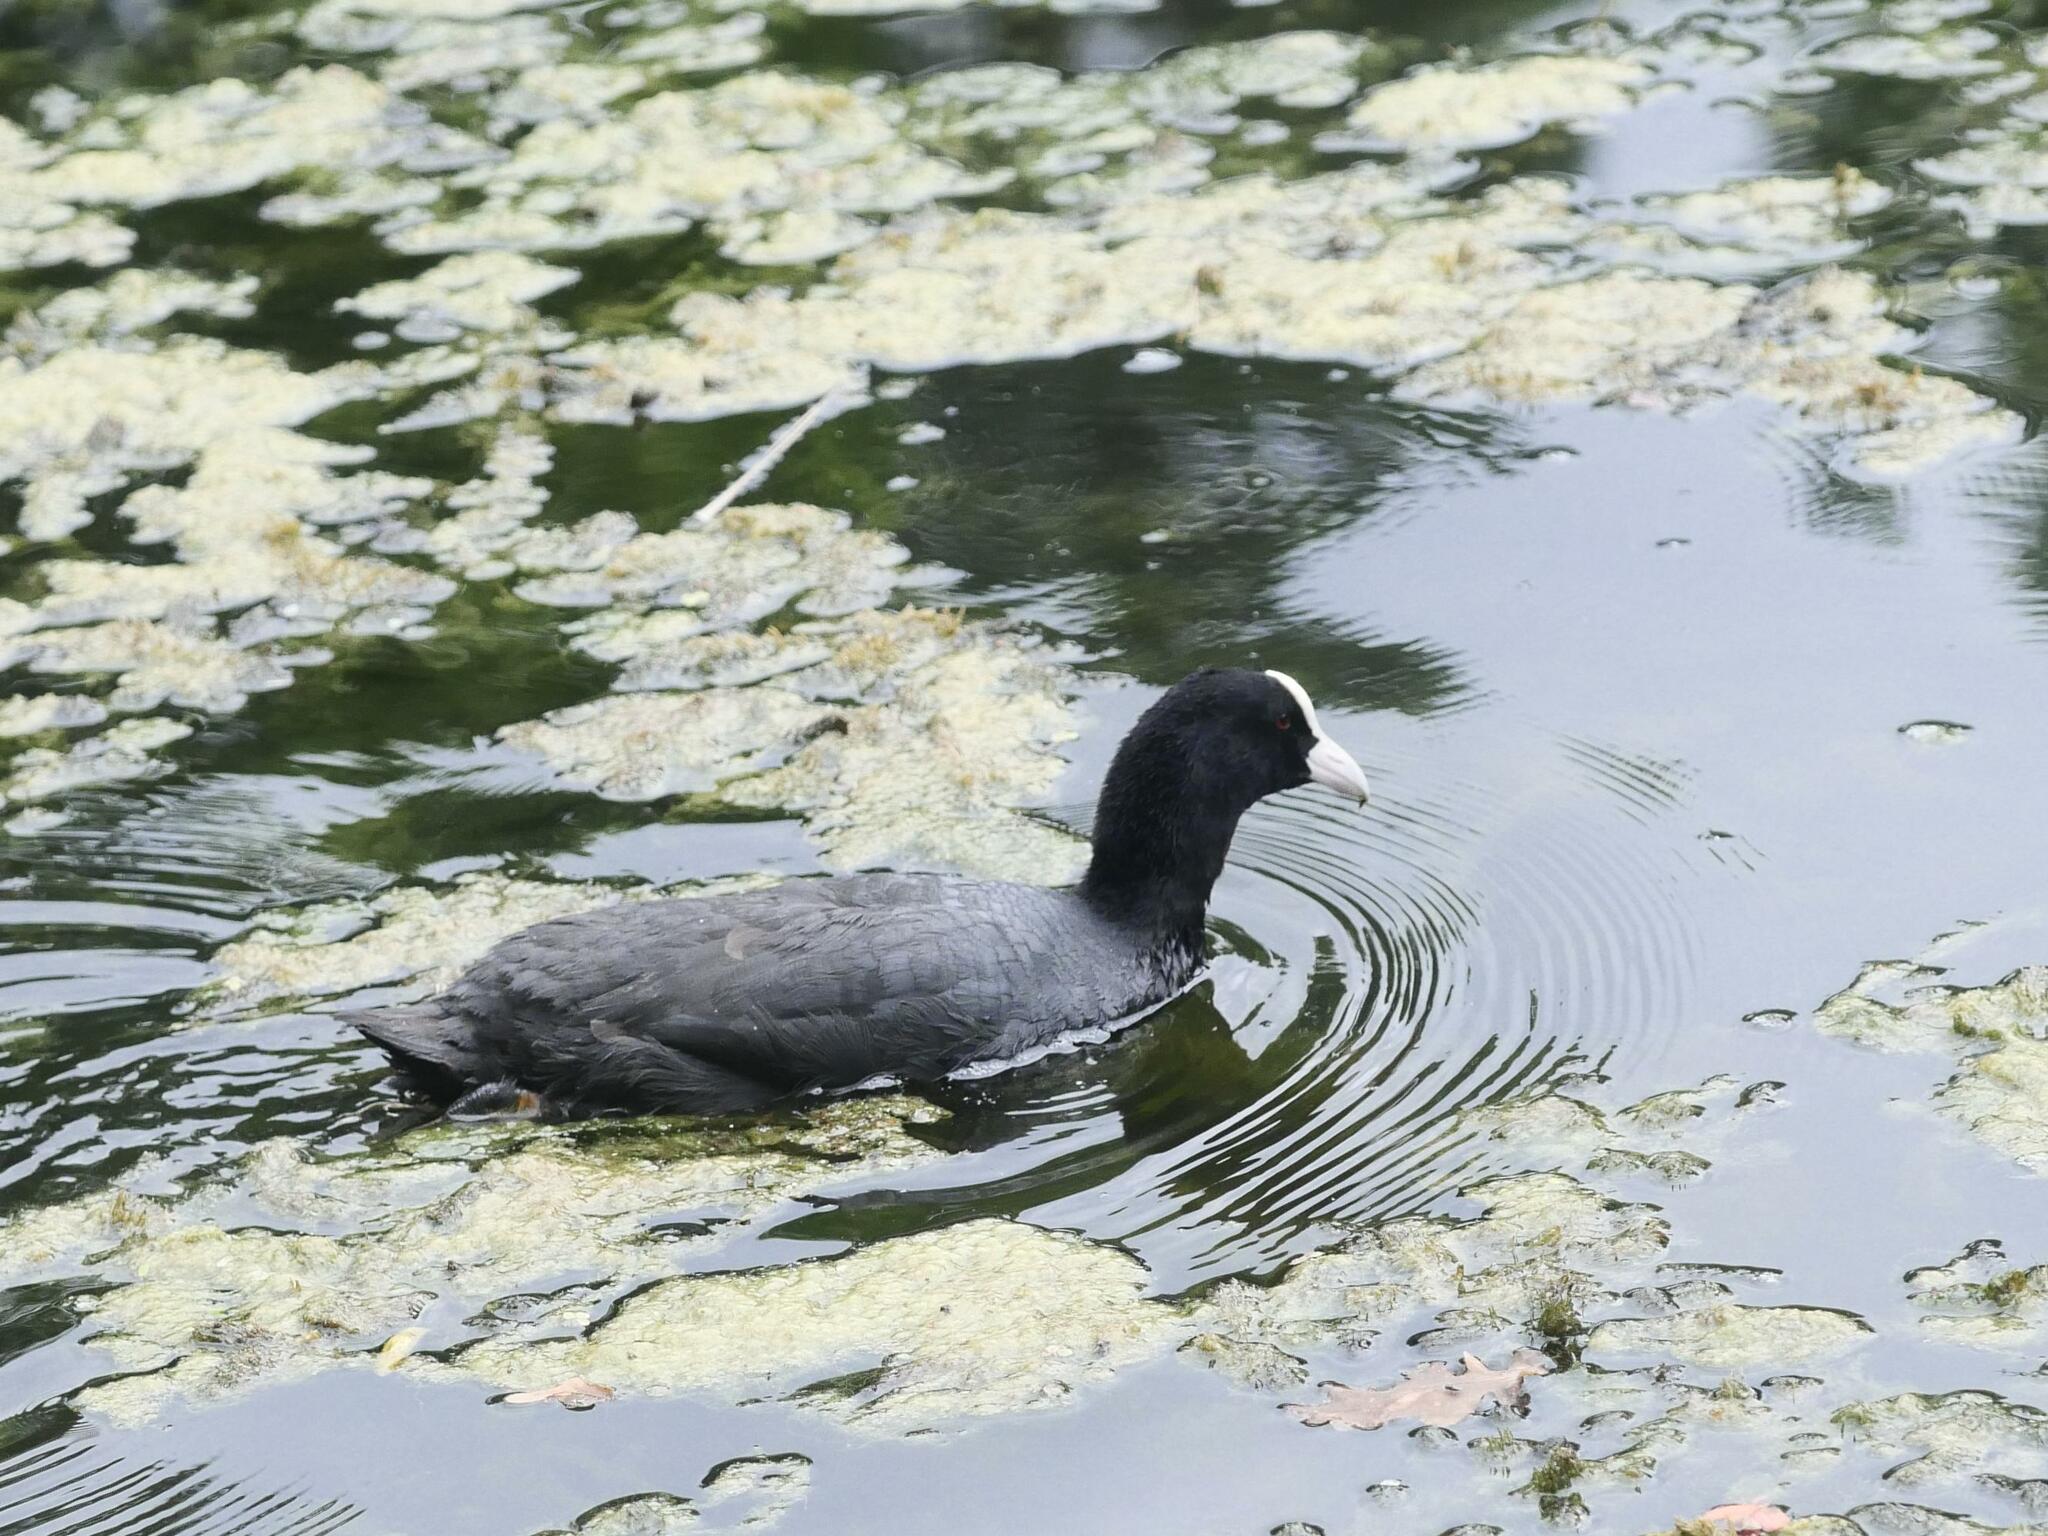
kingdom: Animalia
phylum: Chordata
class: Aves
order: Gruiformes
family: Rallidae
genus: Fulica
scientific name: Fulica atra
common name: Eurasian coot
